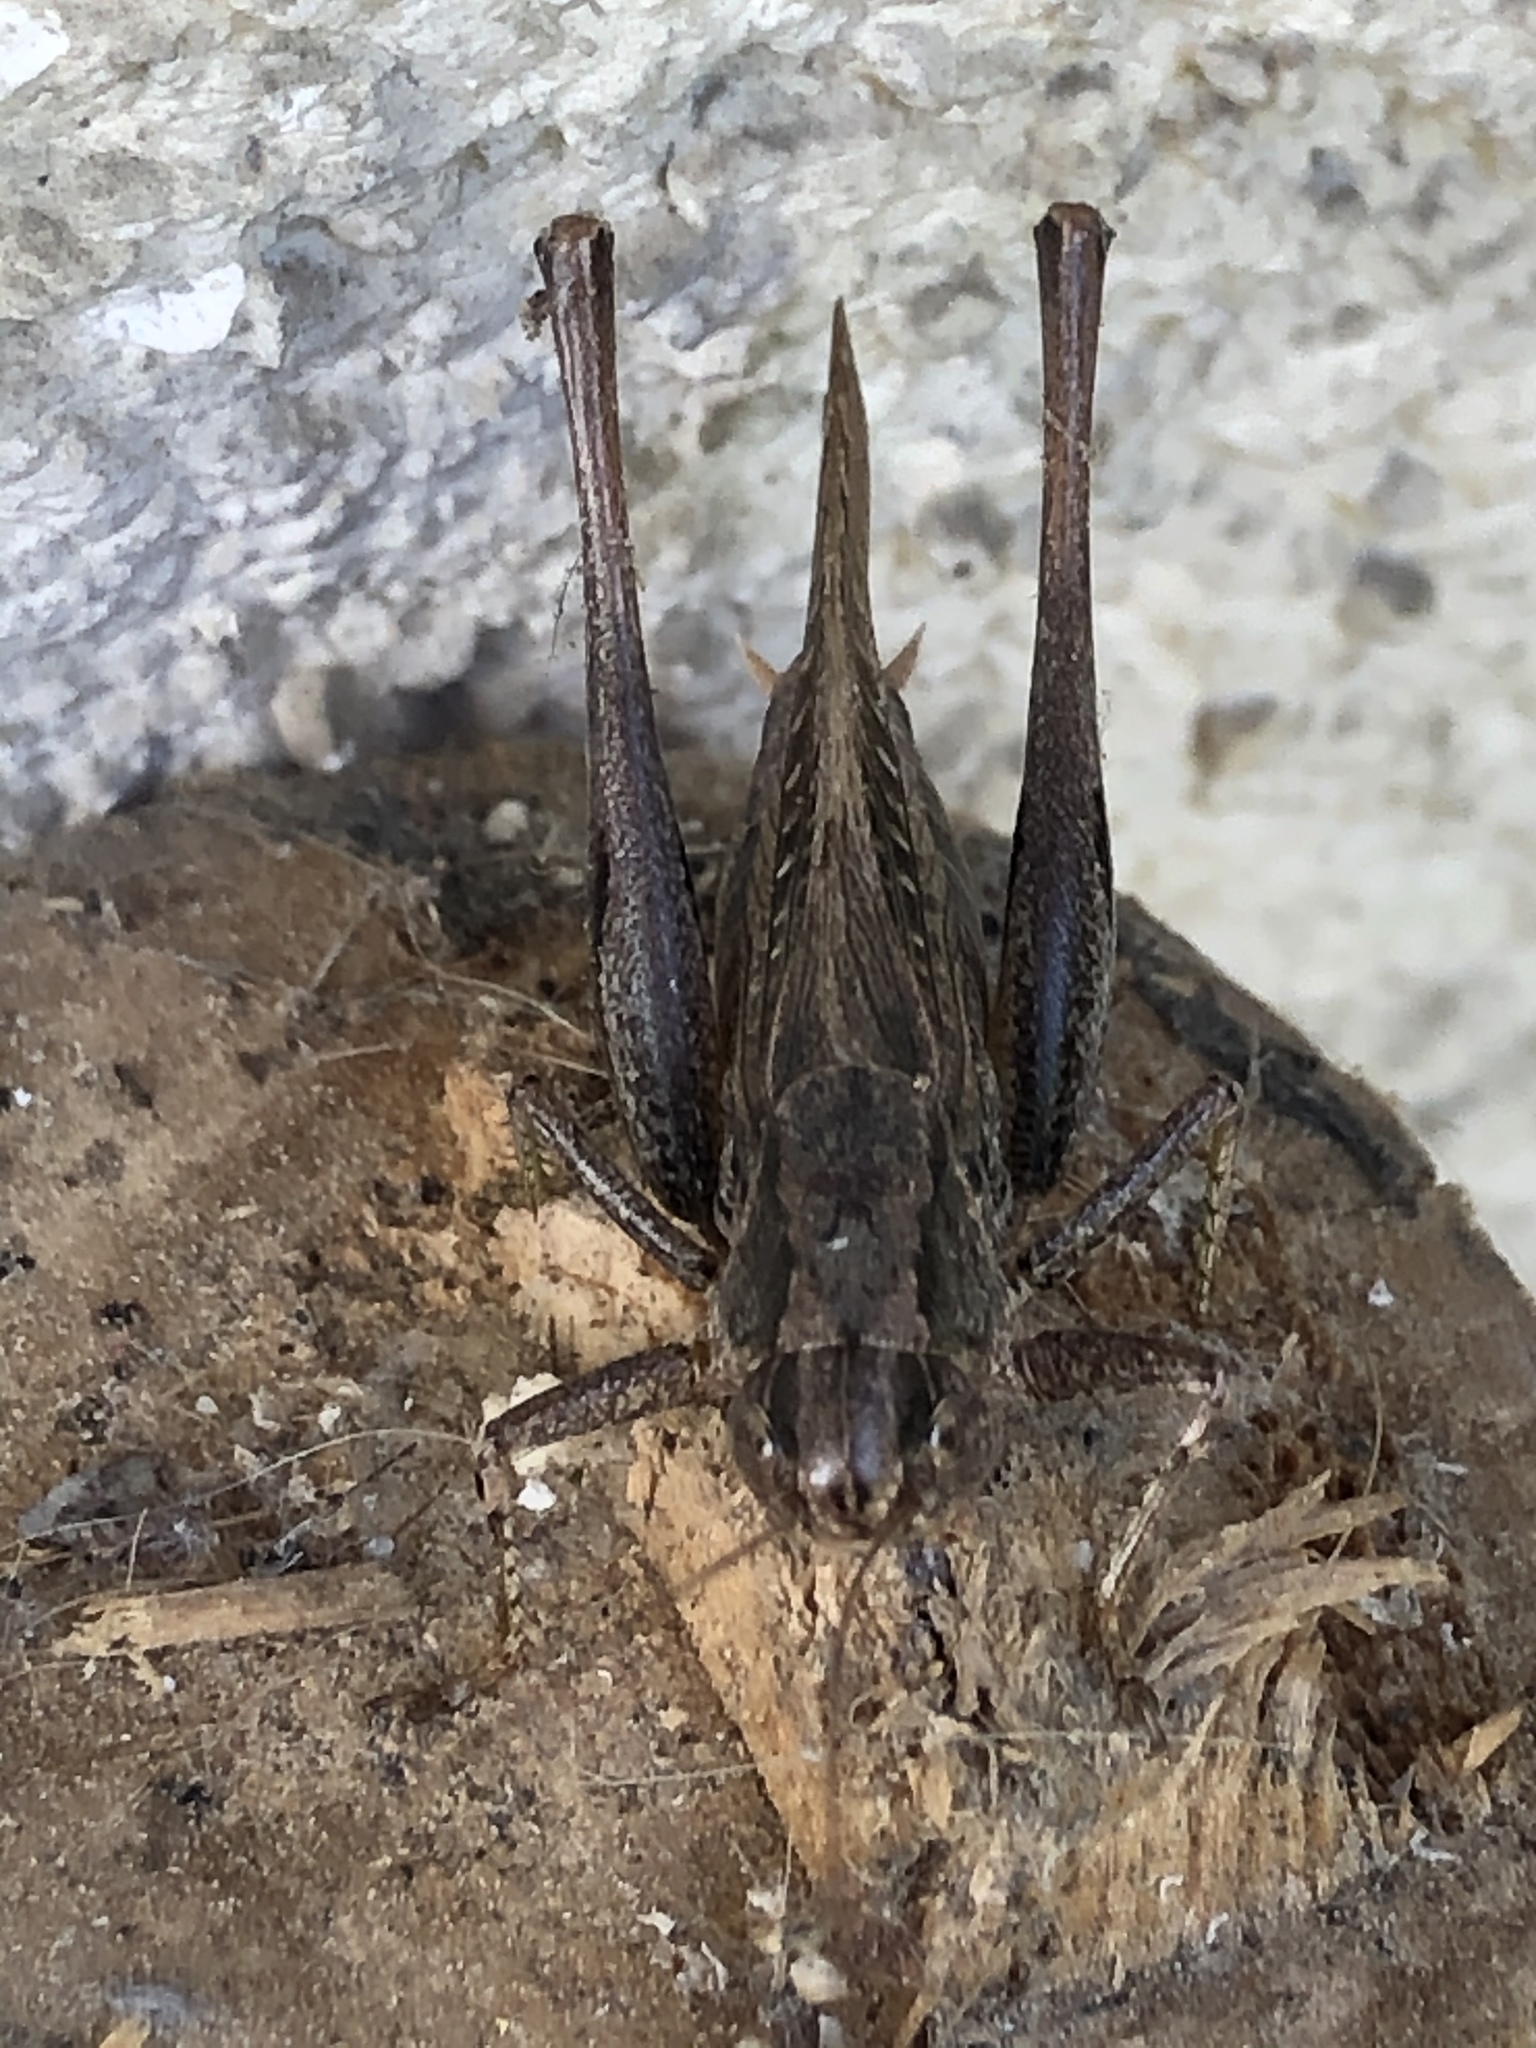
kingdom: Animalia
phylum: Arthropoda
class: Insecta
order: Orthoptera
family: Tettigoniidae
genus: Platycleis
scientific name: Platycleis albopunctata
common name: Grey bush-cricket
